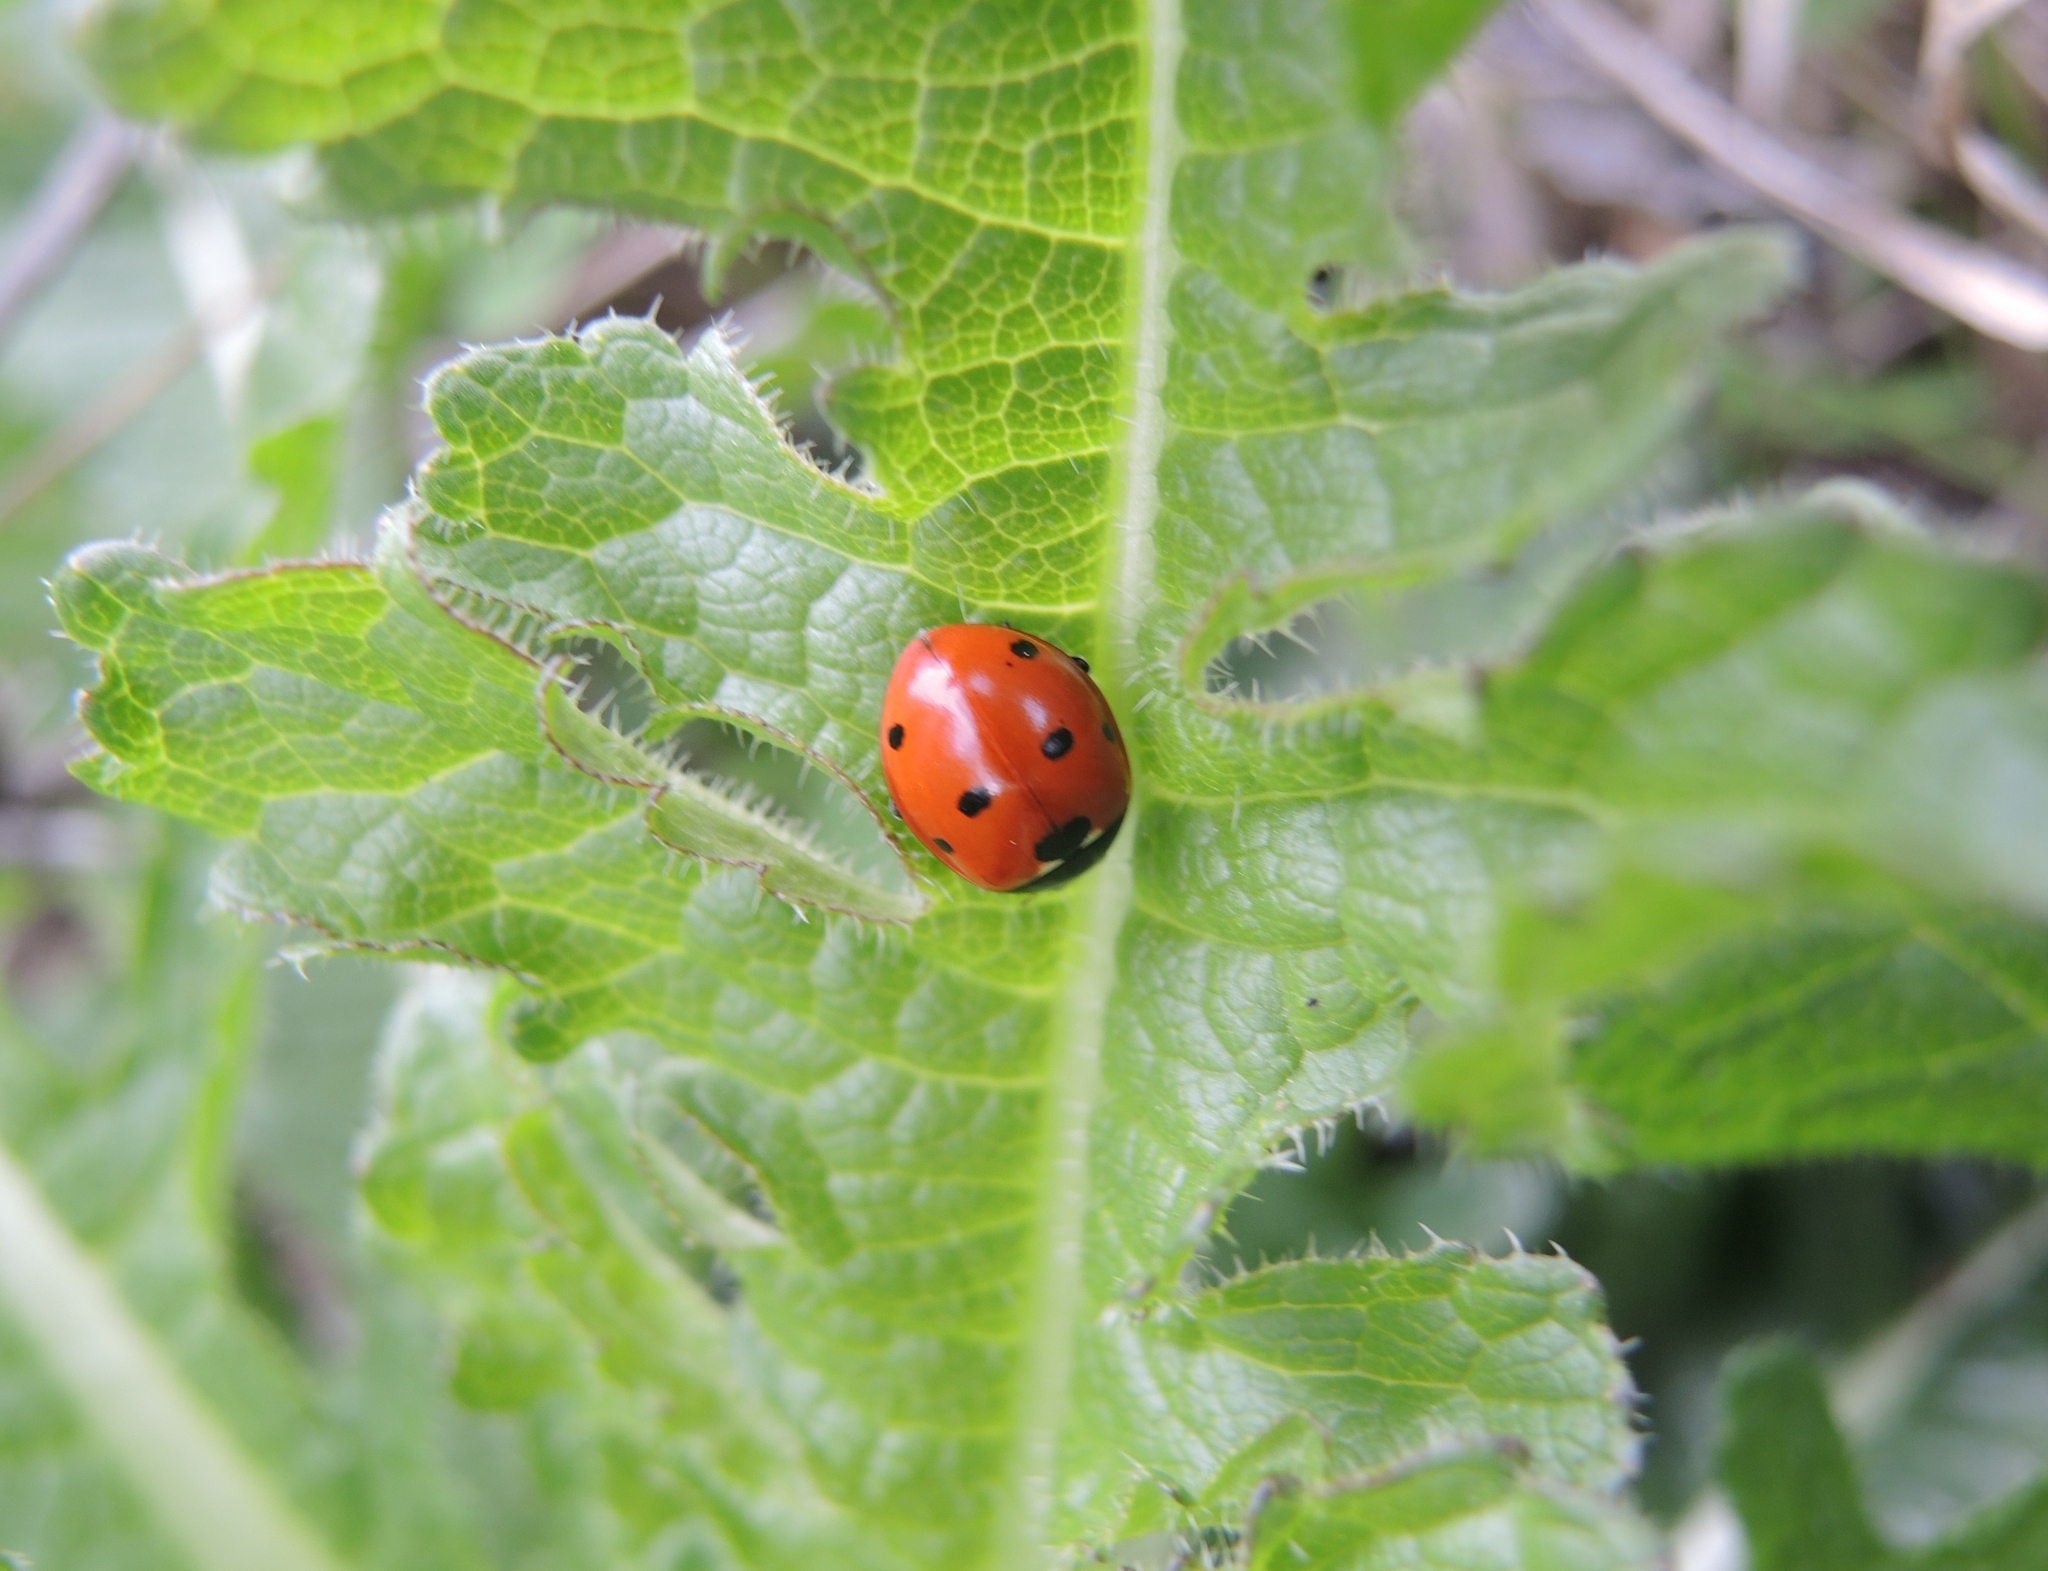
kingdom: Animalia
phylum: Arthropoda
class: Insecta
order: Coleoptera
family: Coccinellidae
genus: Coccinella
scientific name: Coccinella septempunctata
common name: Sevenspotted lady beetle
